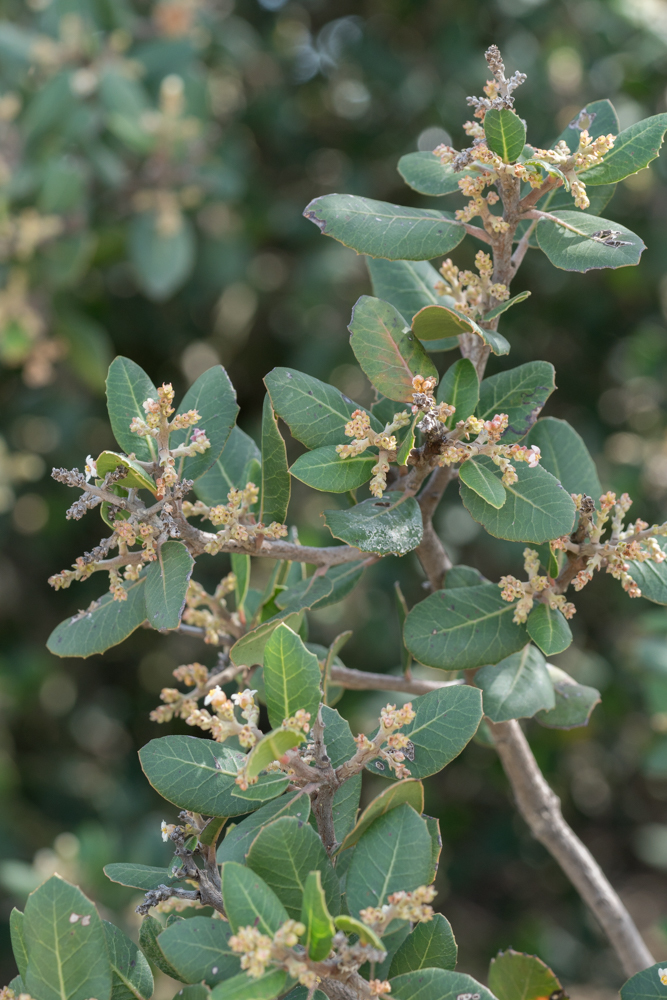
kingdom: Plantae
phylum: Tracheophyta
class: Magnoliopsida
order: Sapindales
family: Anacardiaceae
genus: Rhus
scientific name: Rhus integrifolia
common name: Lemonade sumac
